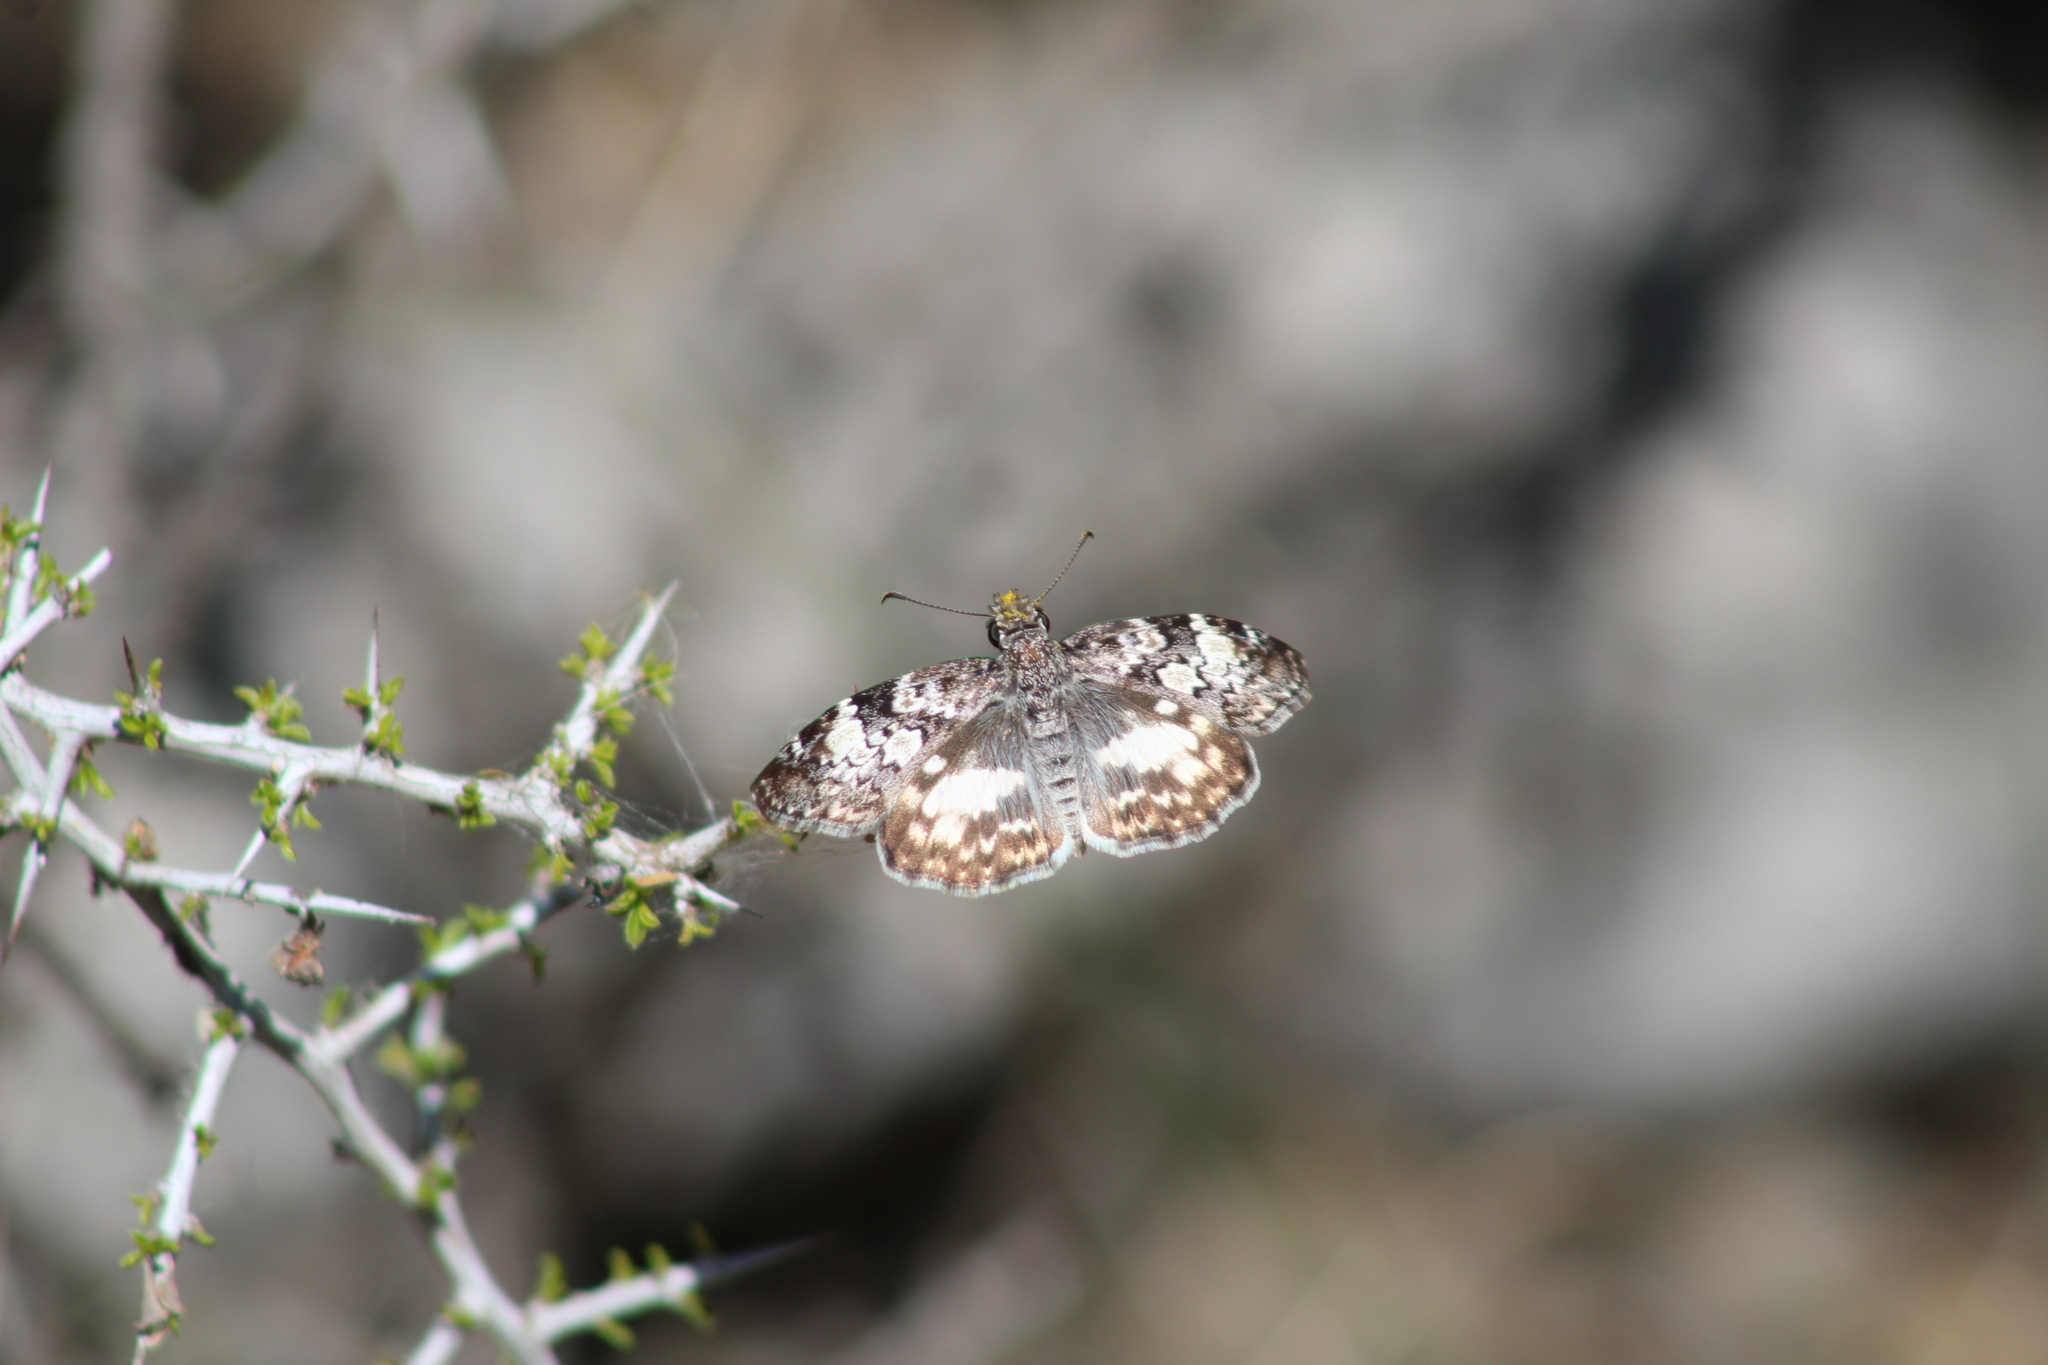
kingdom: Animalia
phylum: Arthropoda
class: Insecta
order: Lepidoptera
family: Hesperiidae
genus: Chiothion
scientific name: Chiothion georgina
